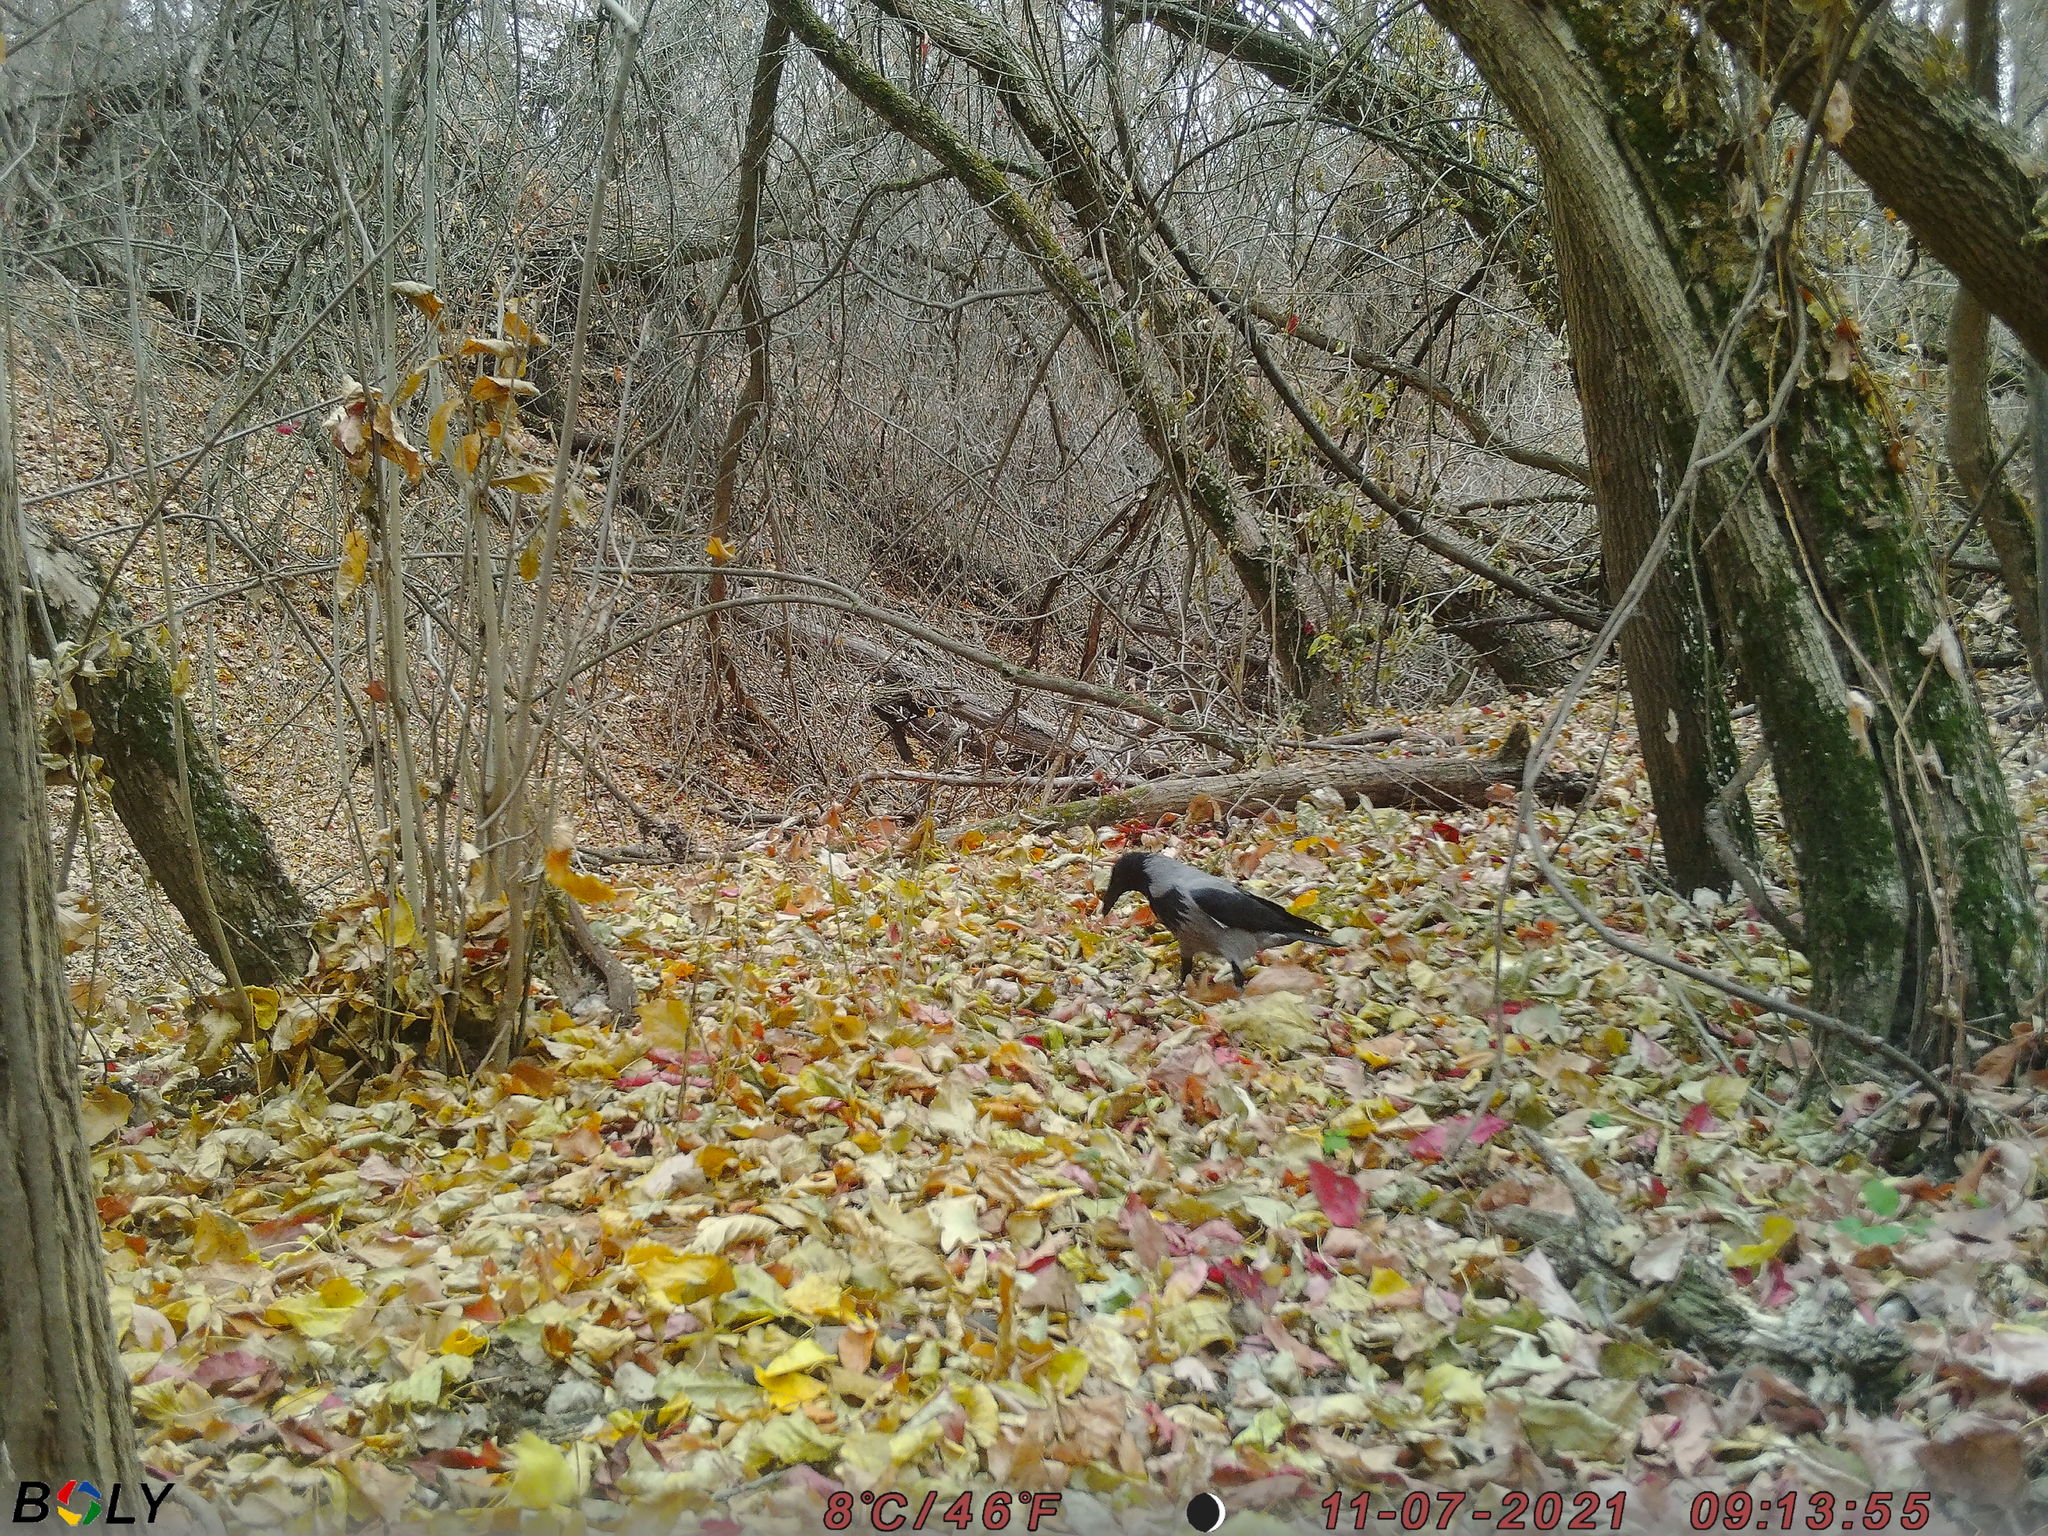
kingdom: Animalia
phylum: Chordata
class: Aves
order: Passeriformes
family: Corvidae
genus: Corvus
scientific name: Corvus cornix
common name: Hooded crow
